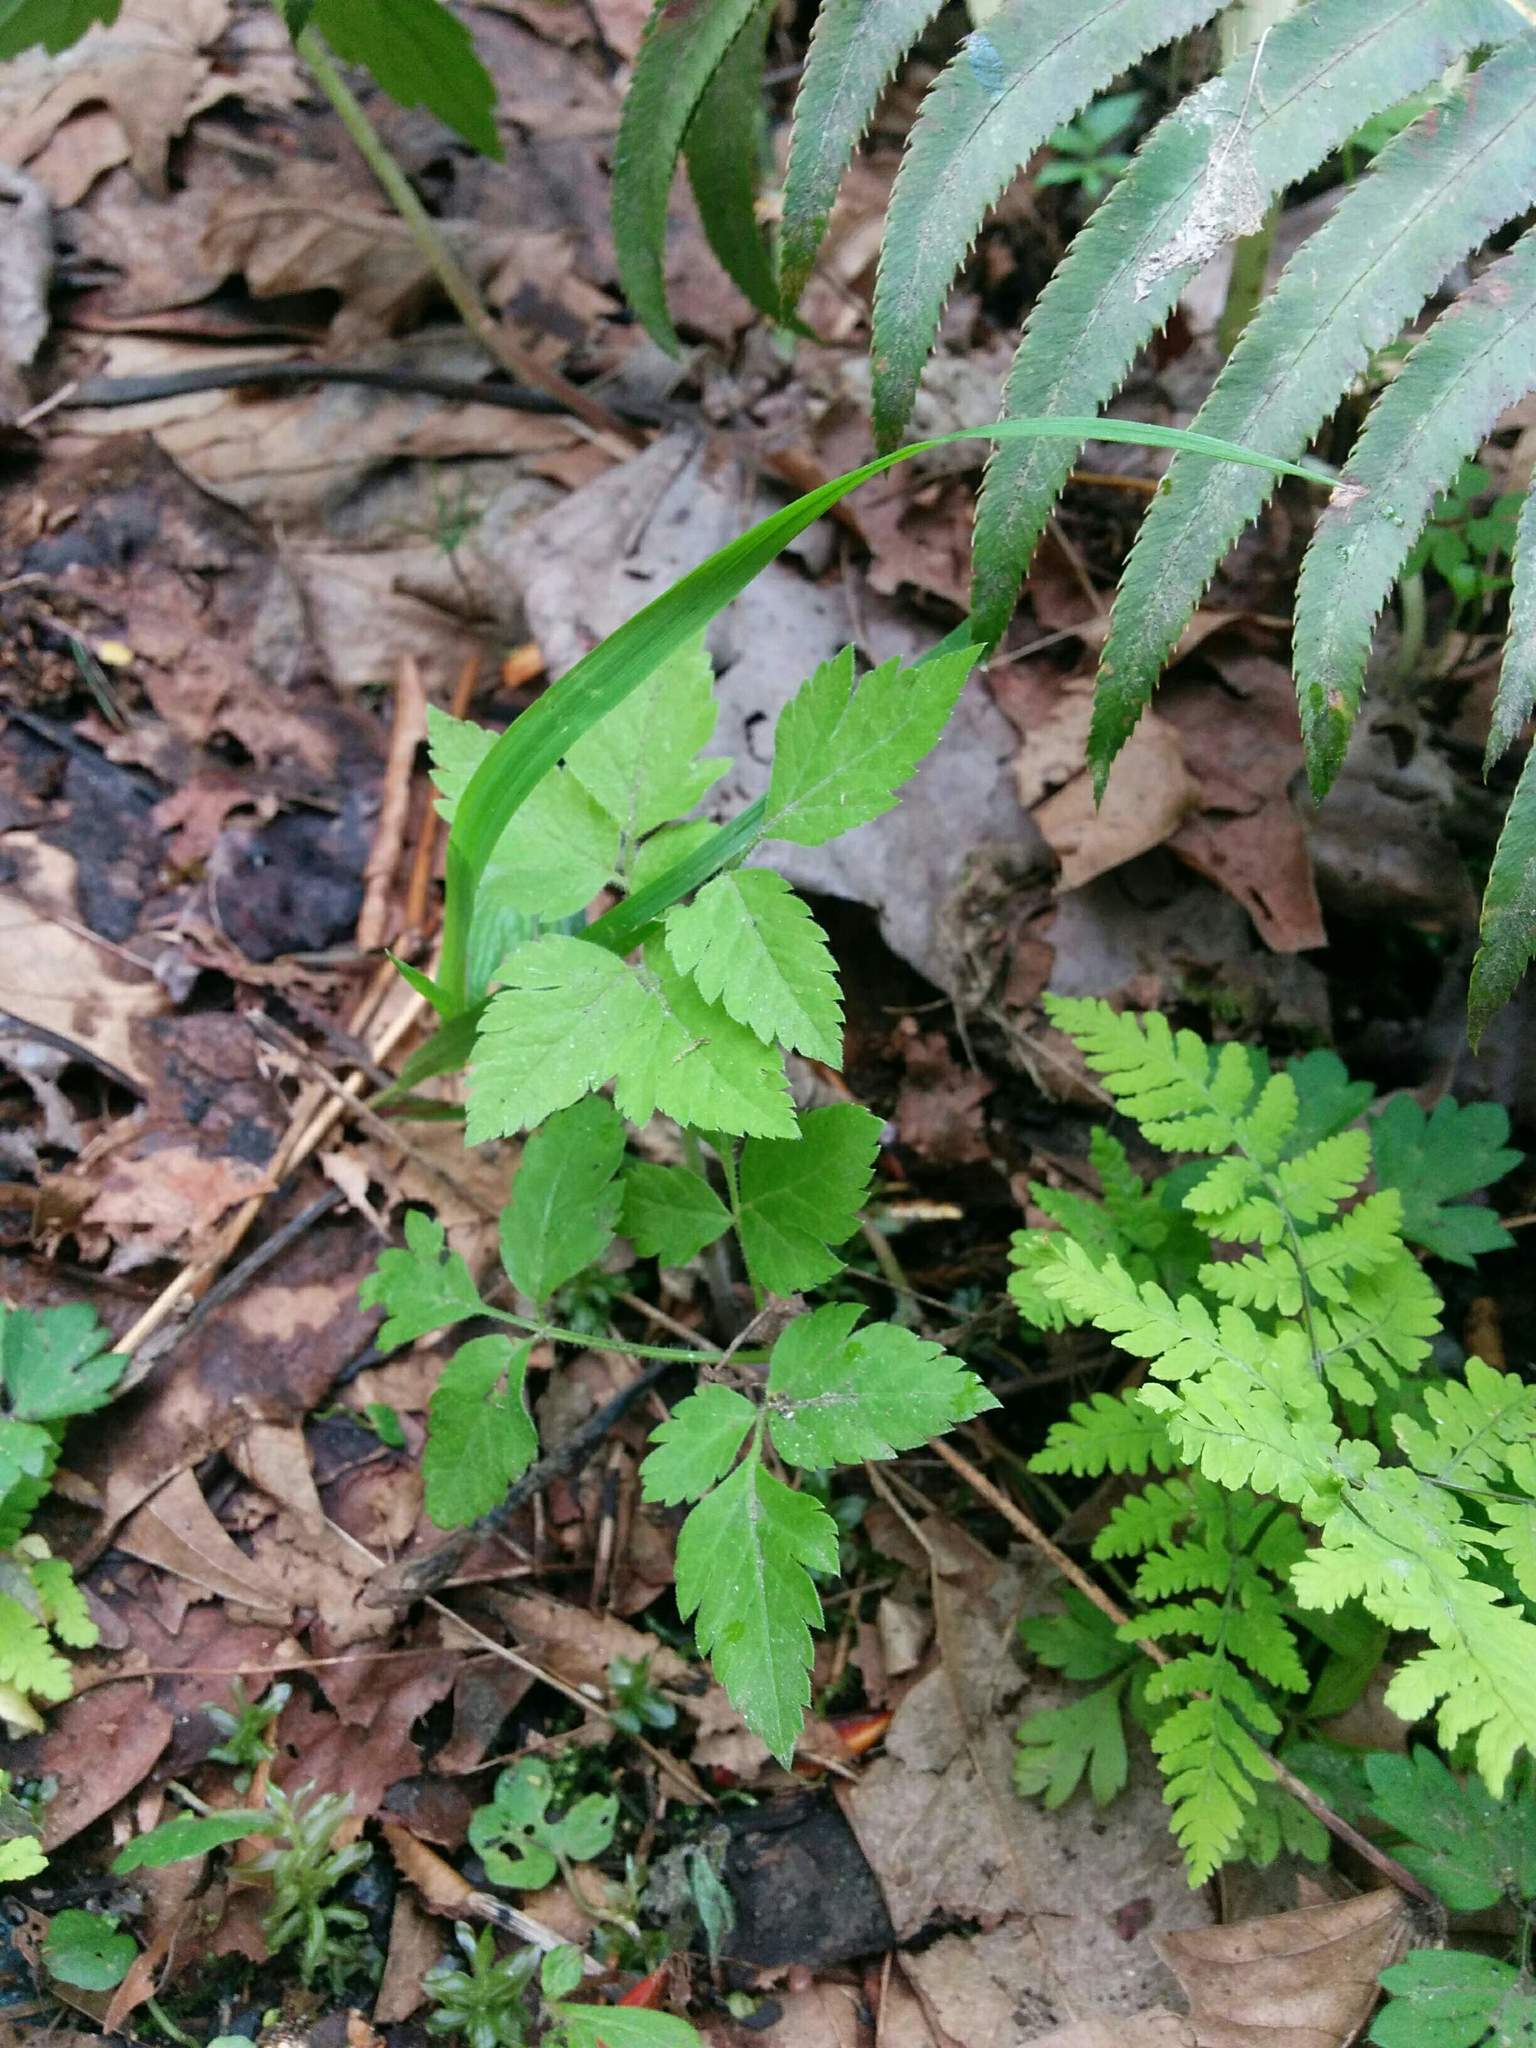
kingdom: Plantae
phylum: Tracheophyta
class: Magnoliopsida
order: Ranunculales
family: Ranunculaceae
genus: Actaea
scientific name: Actaea rubra
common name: Red baneberry
